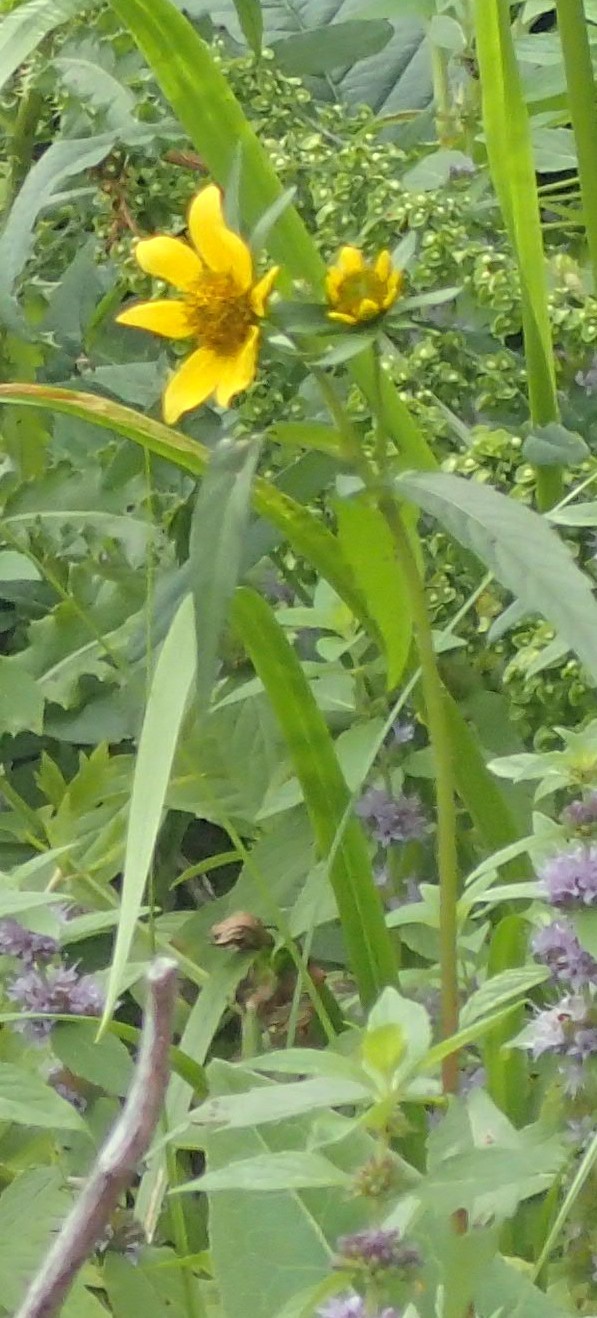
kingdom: Plantae
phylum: Tracheophyta
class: Magnoliopsida
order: Asterales
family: Asteraceae
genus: Bidens
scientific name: Bidens cernua
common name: Nodding bur-marigold
